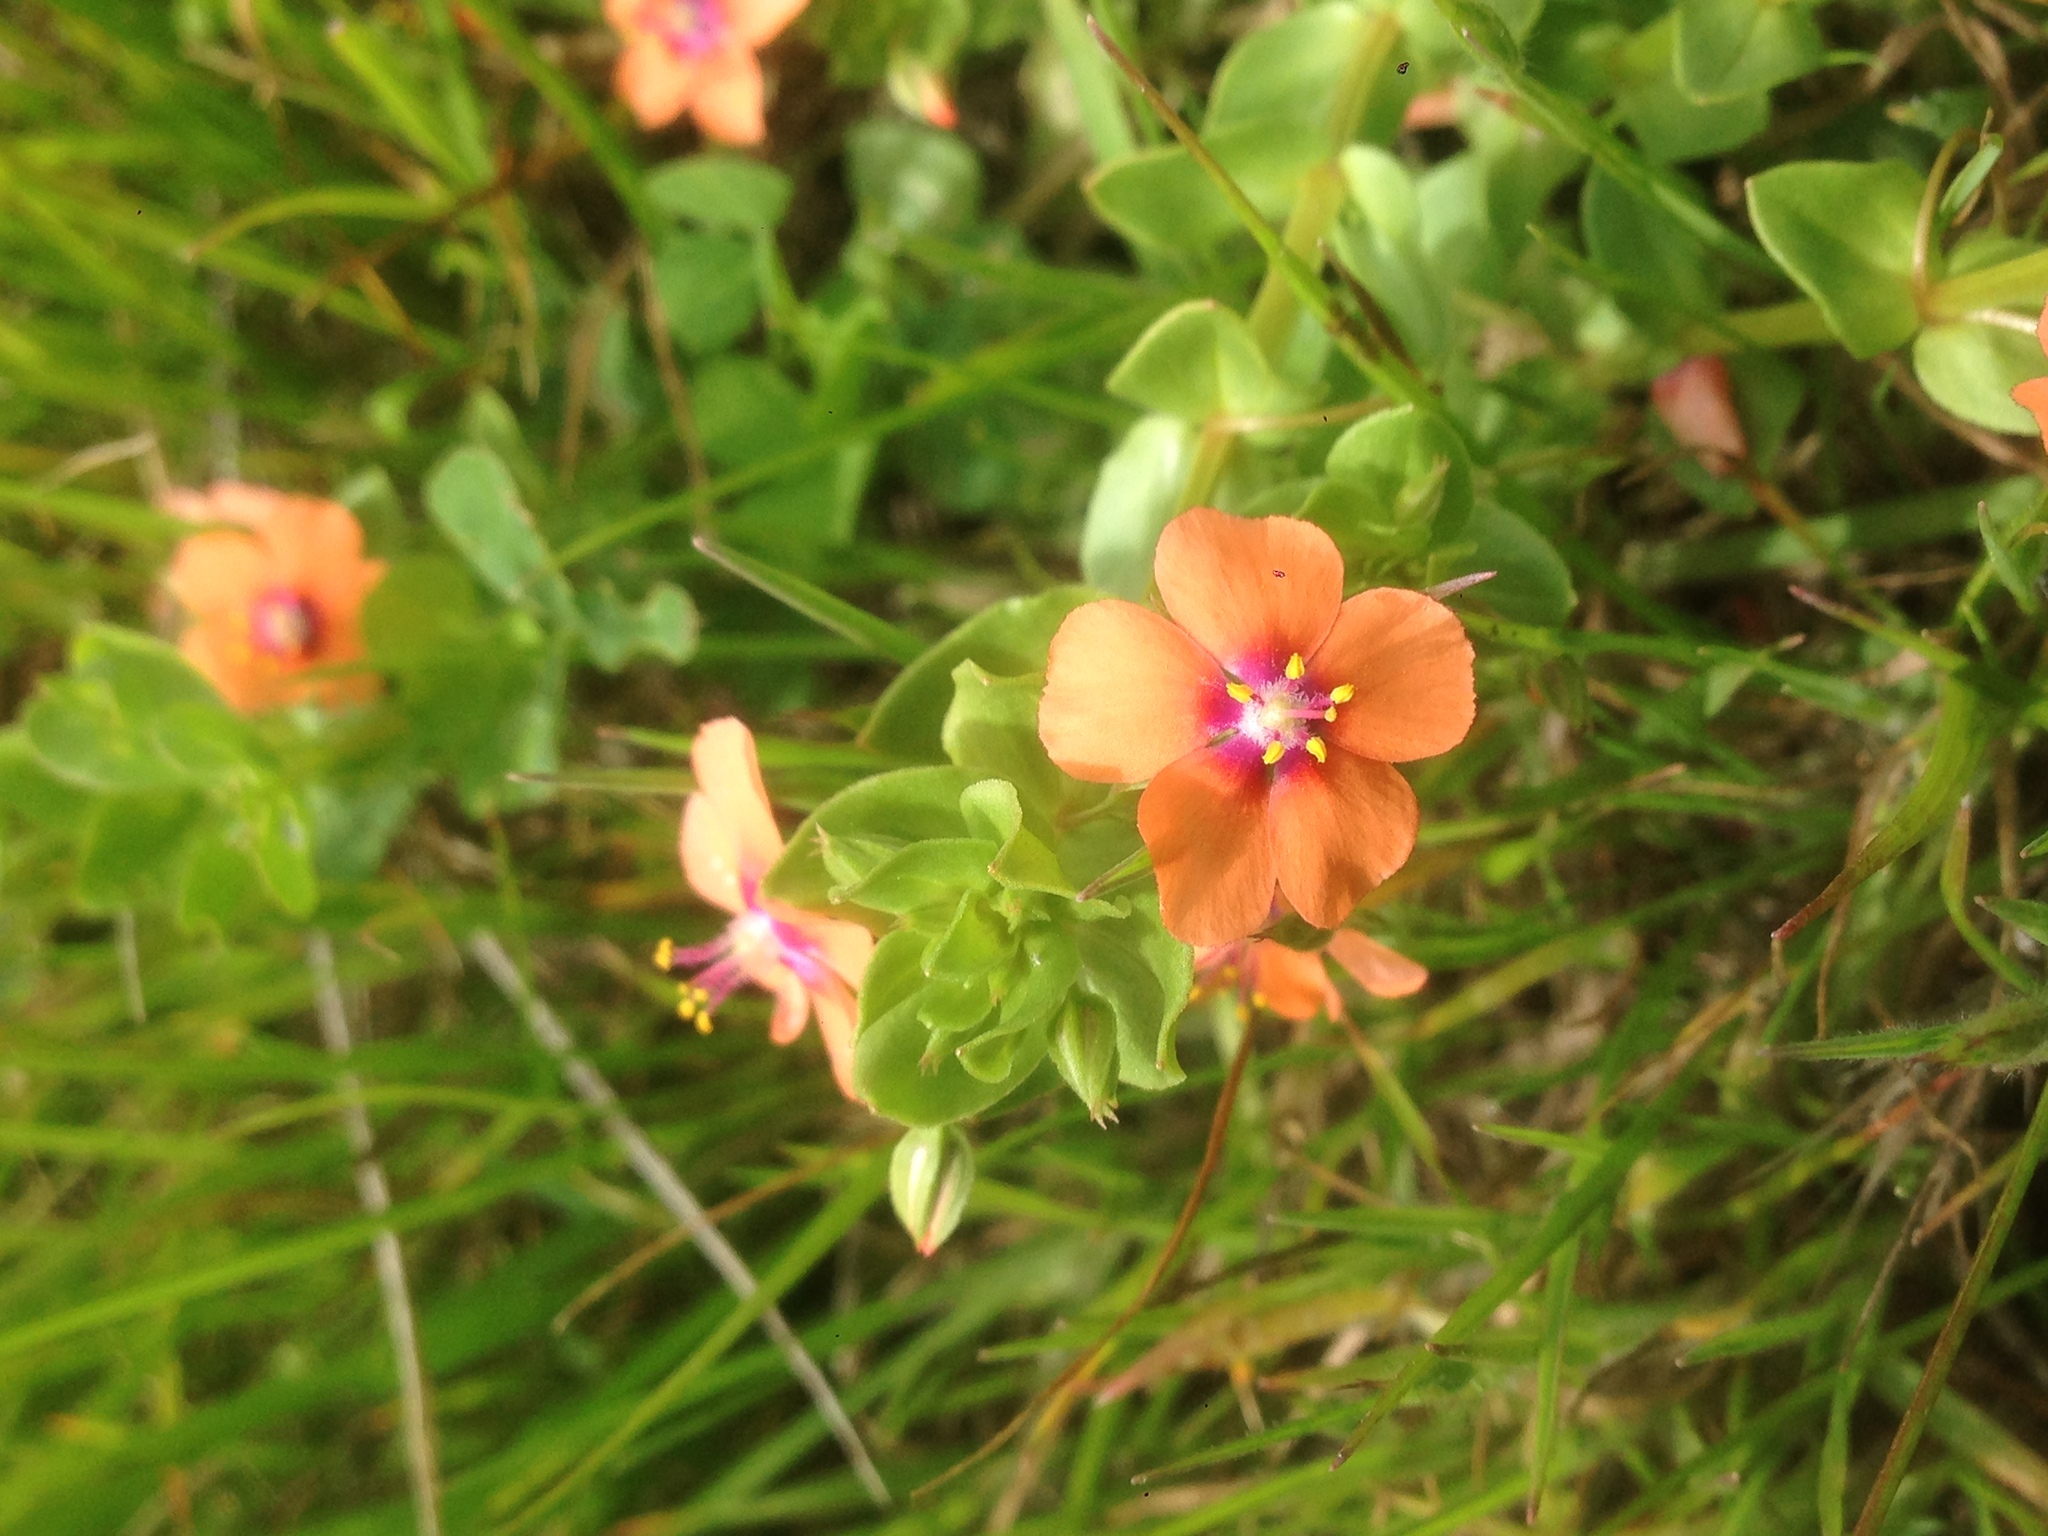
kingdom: Plantae
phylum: Tracheophyta
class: Magnoliopsida
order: Ericales
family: Primulaceae
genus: Lysimachia
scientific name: Lysimachia arvensis
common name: Scarlet pimpernel
